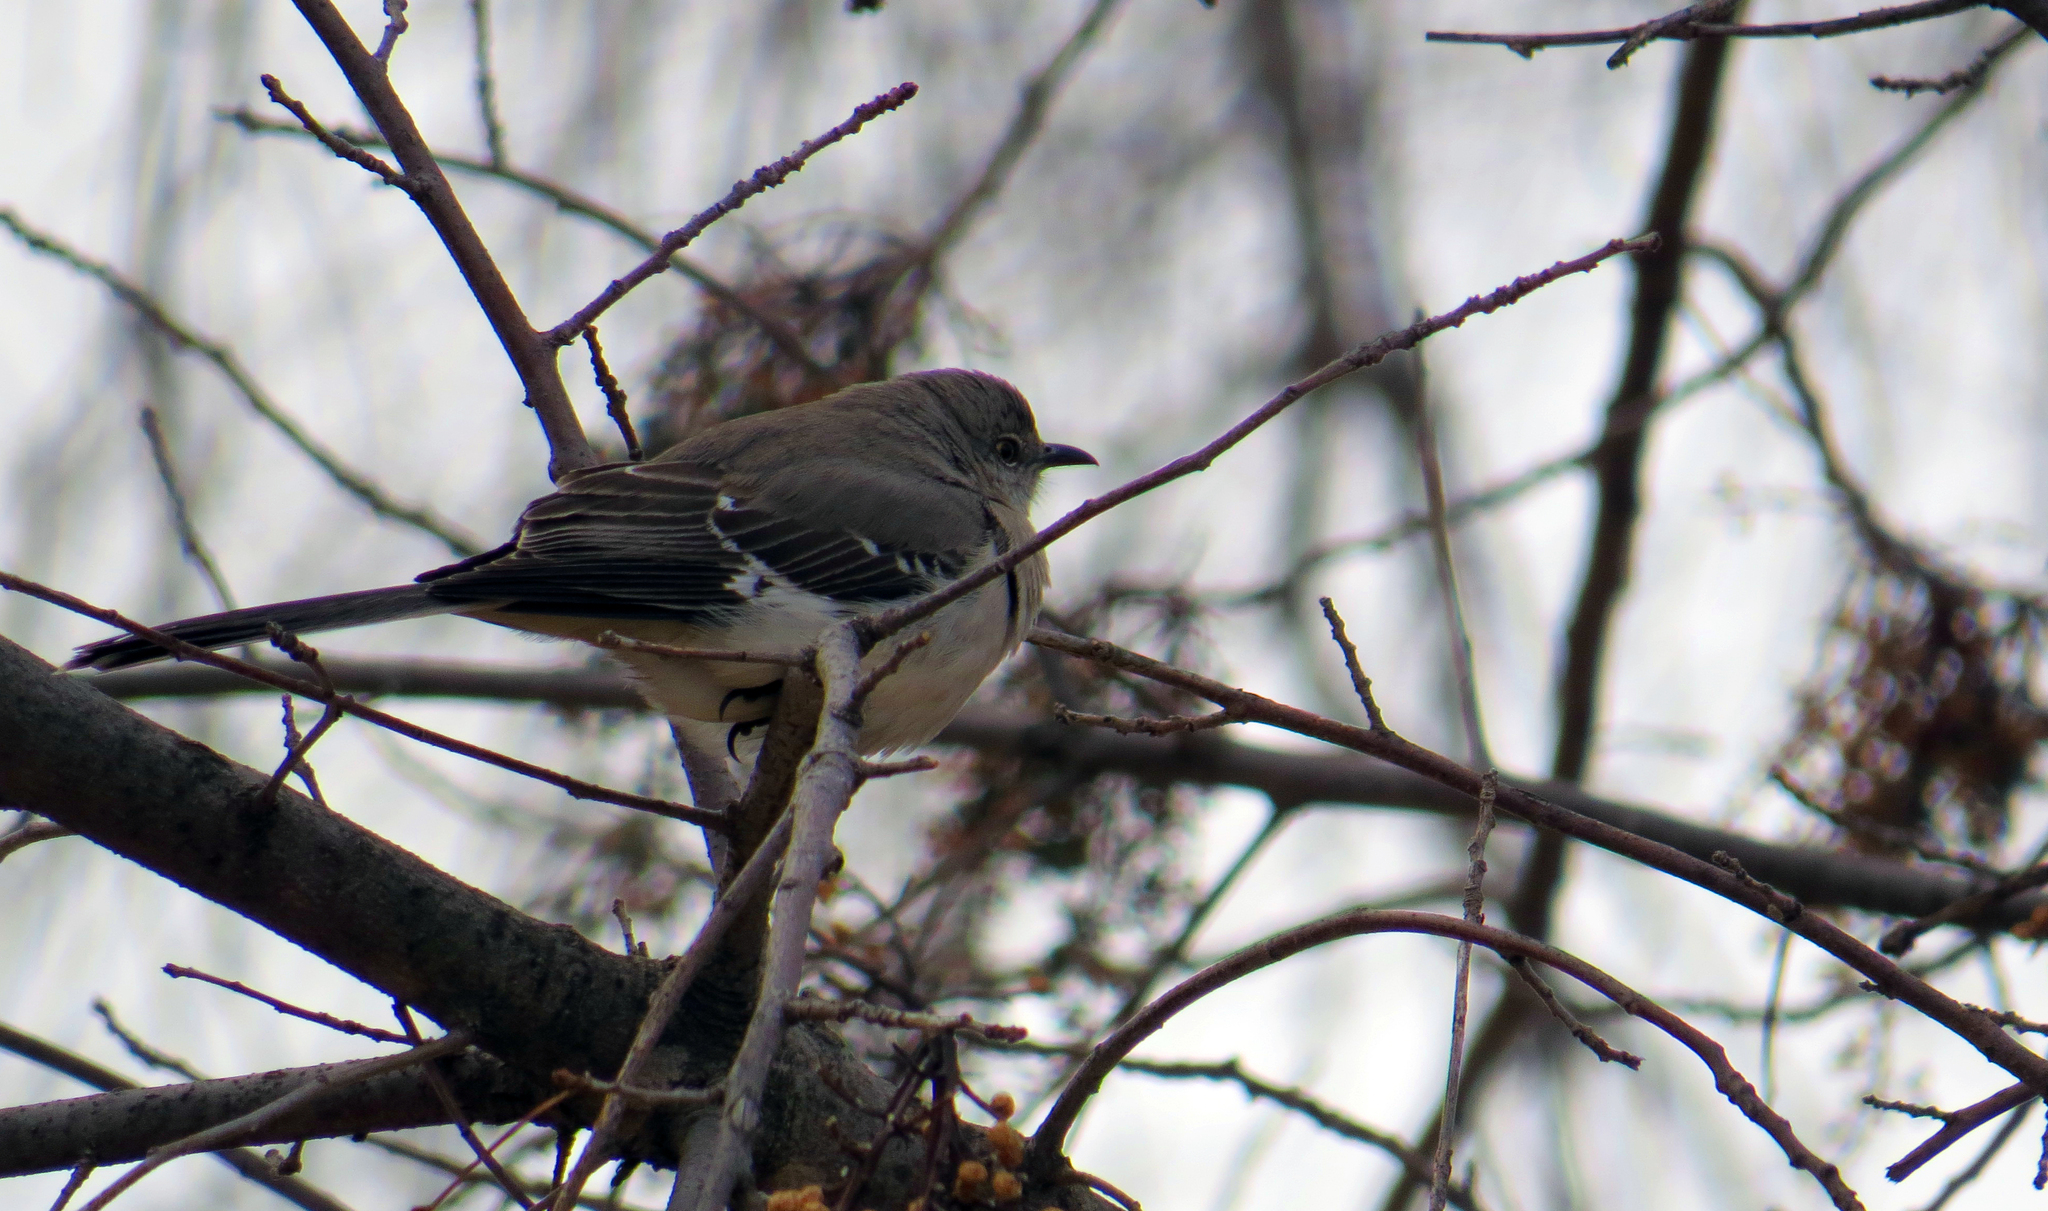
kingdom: Animalia
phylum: Chordata
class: Aves
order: Passeriformes
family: Mimidae
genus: Mimus
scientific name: Mimus polyglottos
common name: Northern mockingbird
